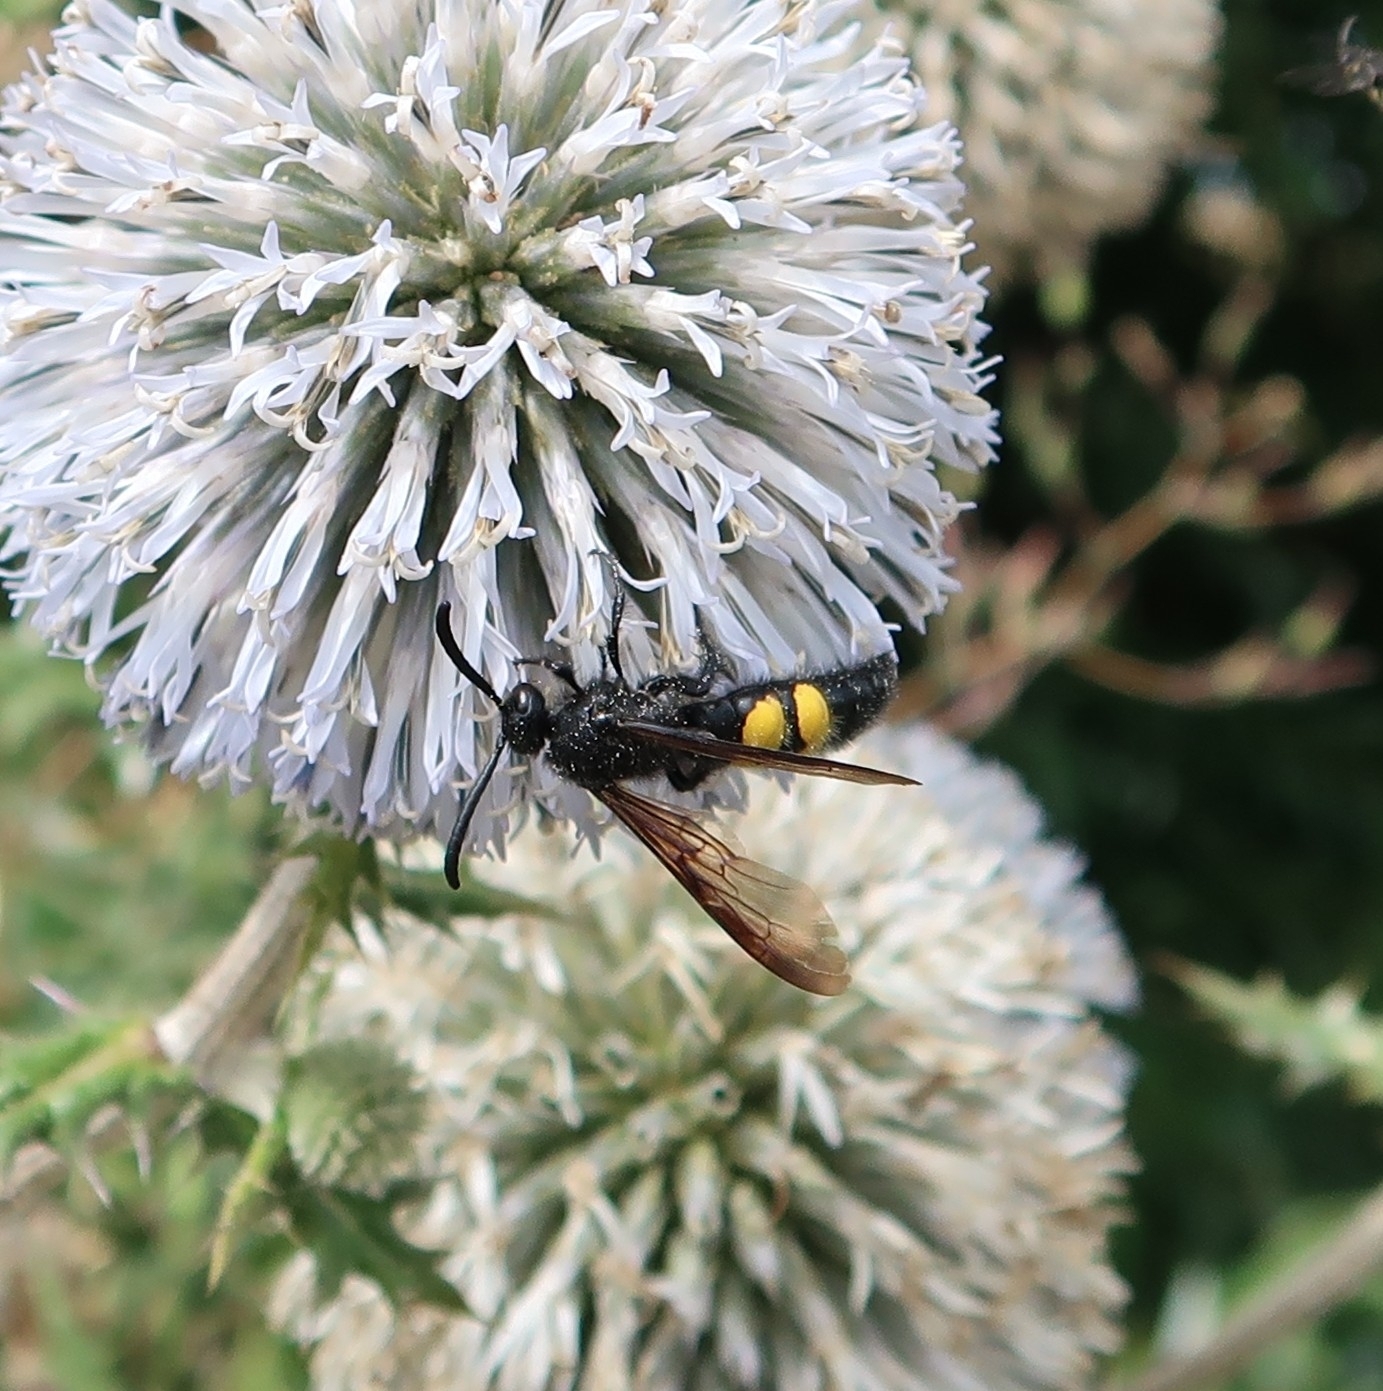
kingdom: Animalia
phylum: Arthropoda
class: Insecta
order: Hymenoptera
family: Scoliidae
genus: Scolia
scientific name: Scolia hirta
